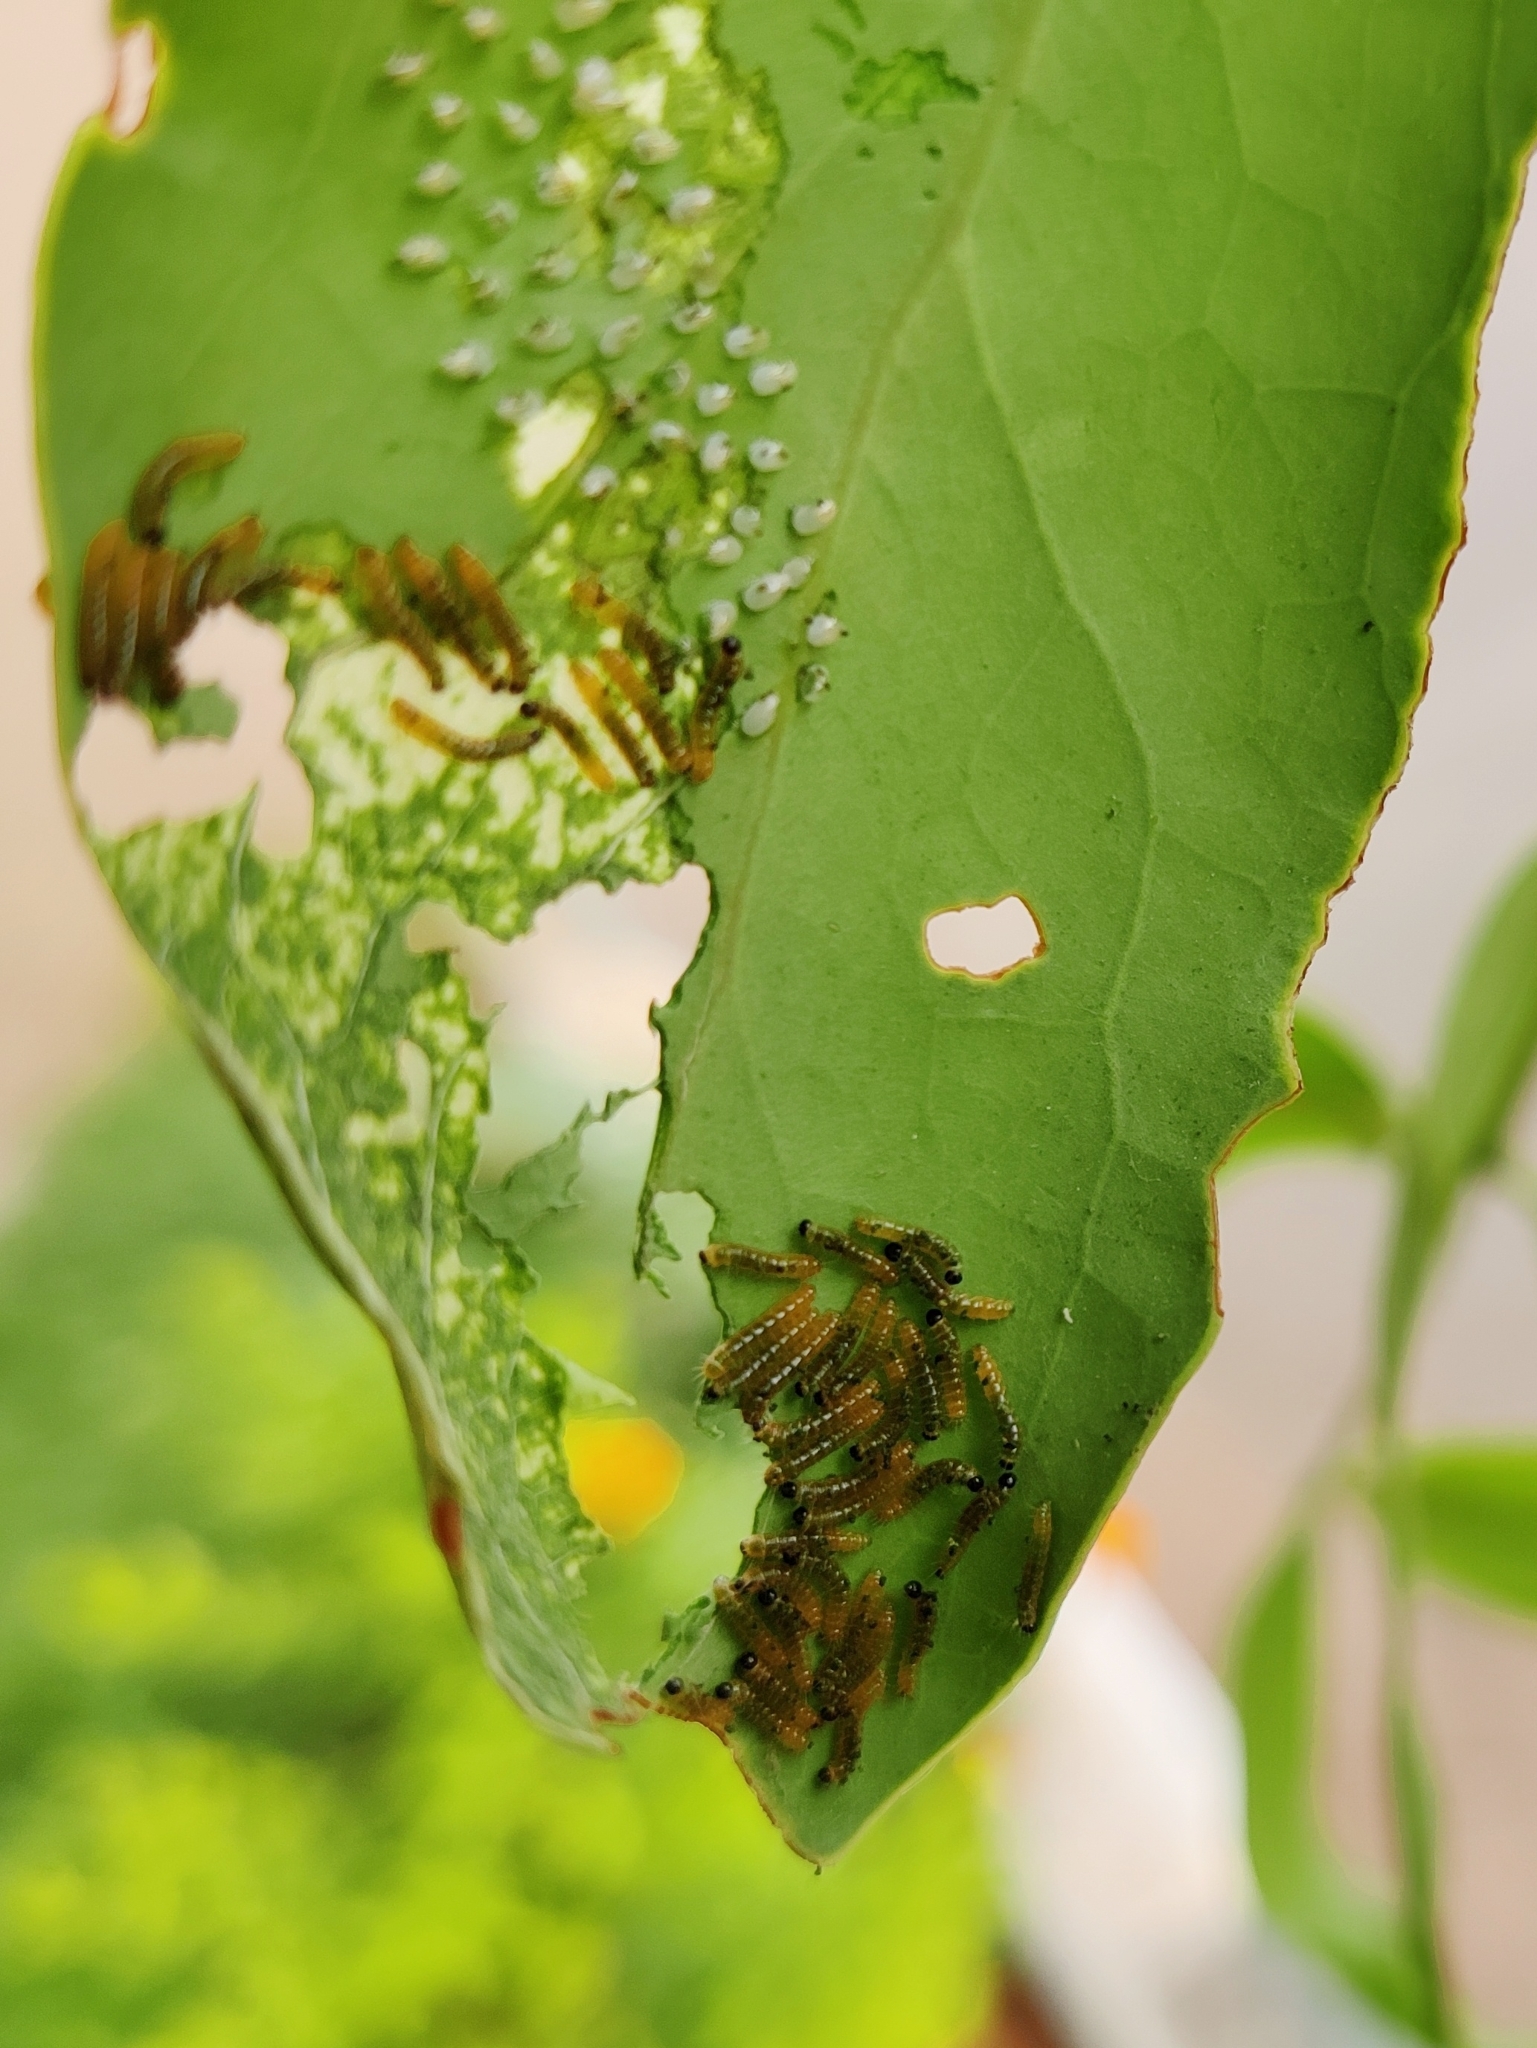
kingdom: Animalia
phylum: Arthropoda
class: Insecta
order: Lepidoptera
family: Pieridae
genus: Delias
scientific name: Delias eucharis
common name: Common jezebel
